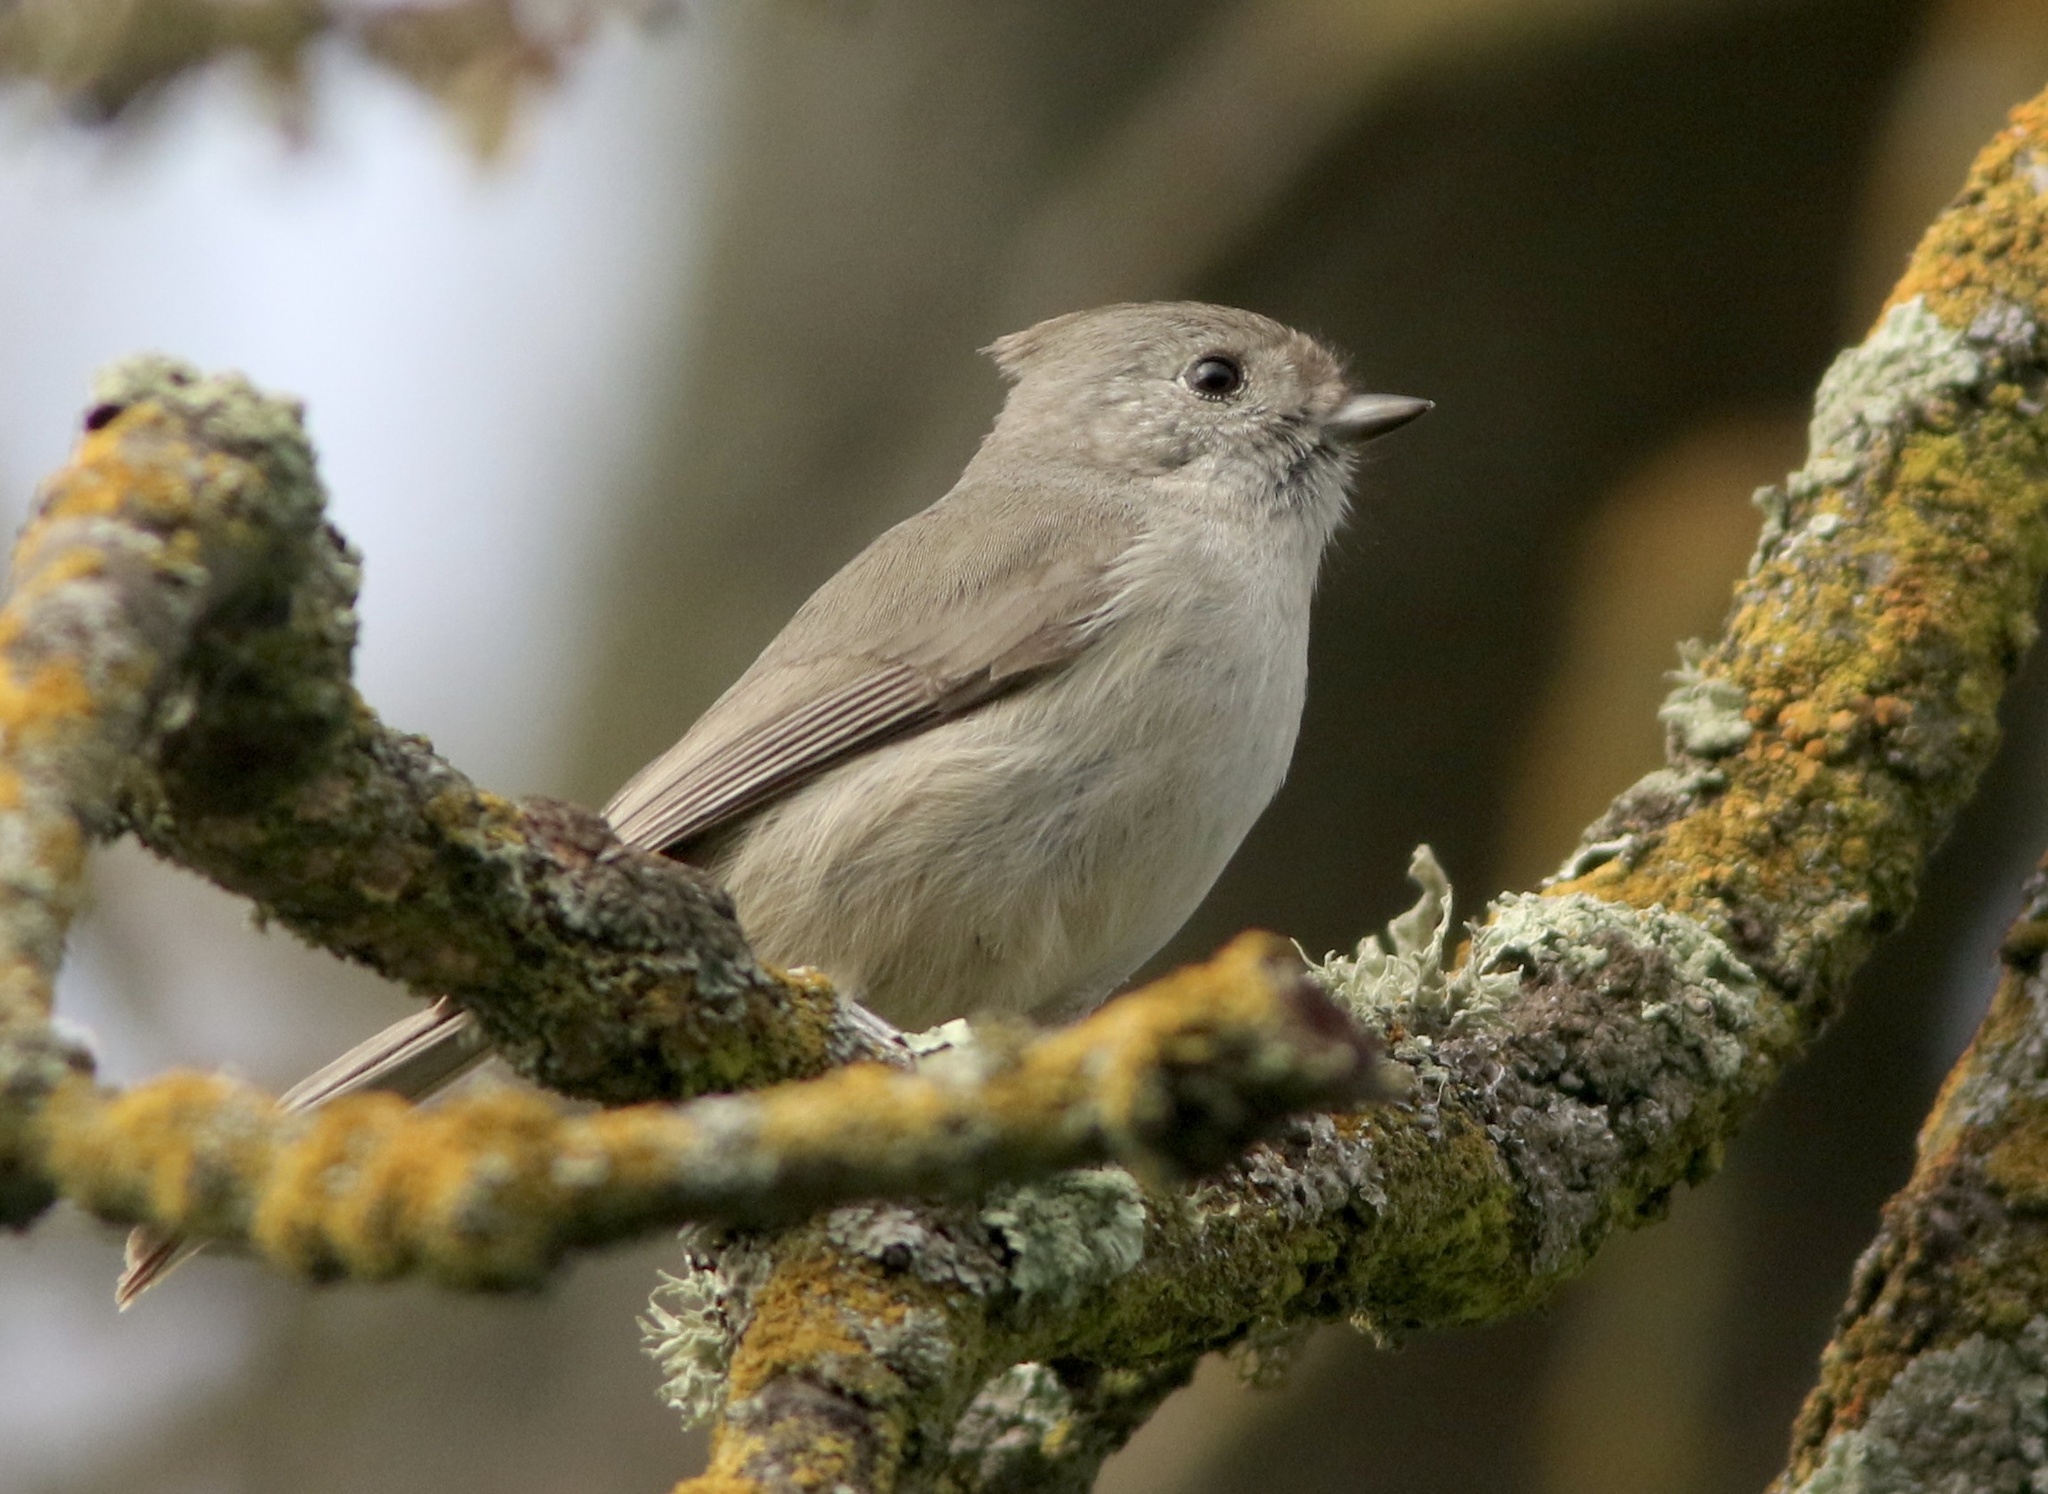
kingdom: Animalia
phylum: Chordata
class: Aves
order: Passeriformes
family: Paridae
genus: Baeolophus
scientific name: Baeolophus inornatus
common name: Oak titmouse
